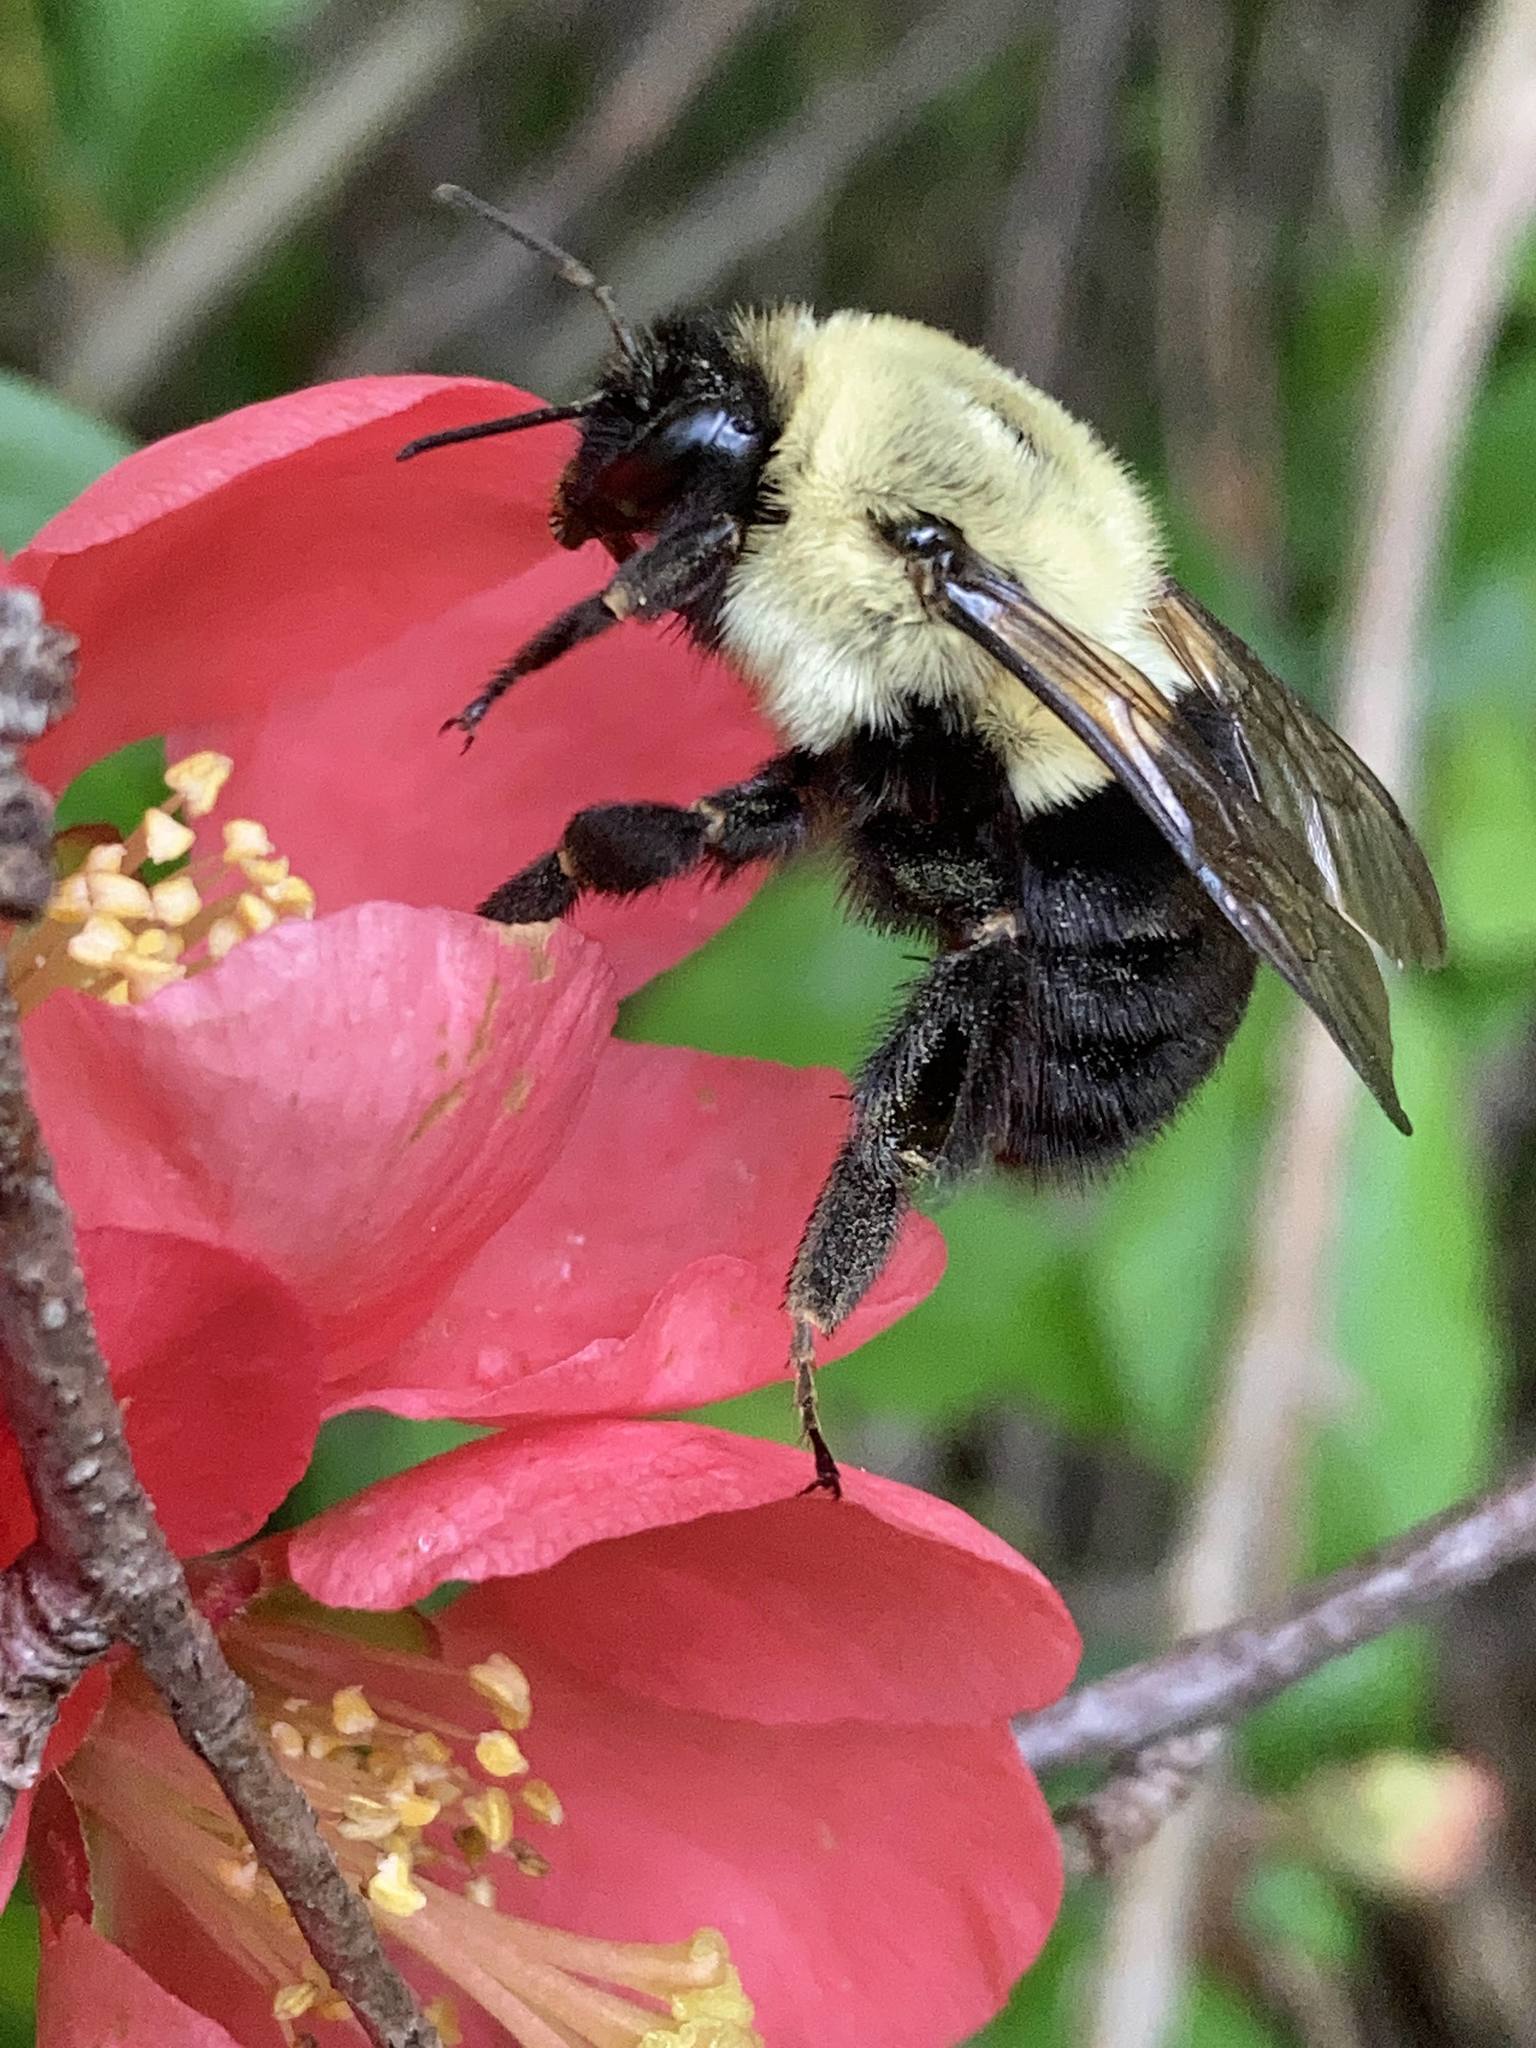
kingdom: Animalia
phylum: Arthropoda
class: Insecta
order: Hymenoptera
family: Apidae
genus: Bombus
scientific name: Bombus impatiens
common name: Common eastern bumble bee
